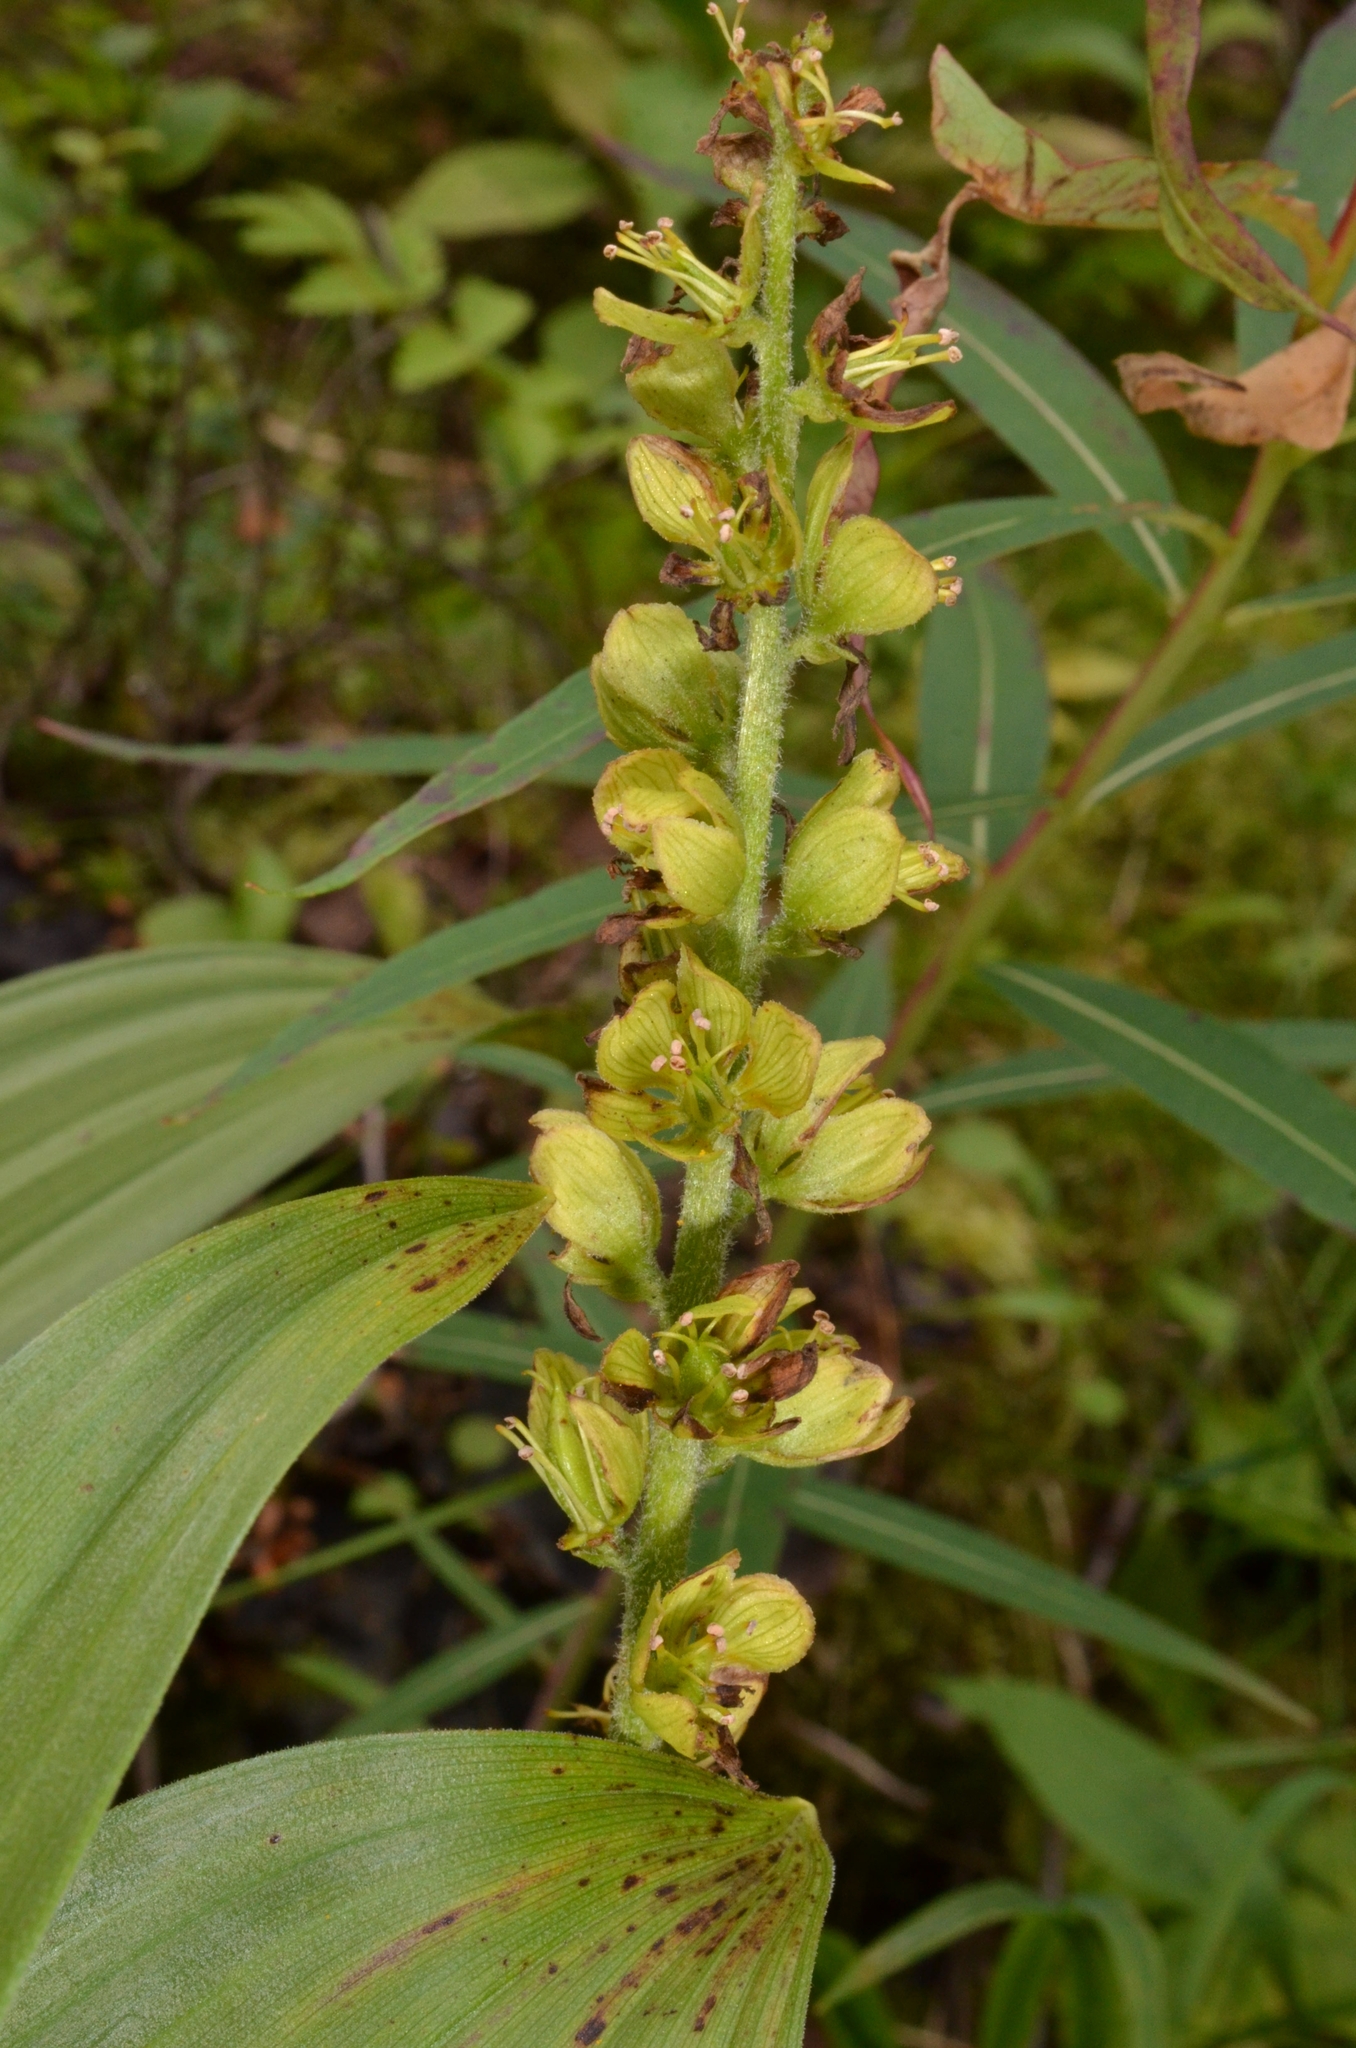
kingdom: Plantae
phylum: Tracheophyta
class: Liliopsida
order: Liliales
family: Melanthiaceae
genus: Veratrum
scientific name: Veratrum lobelianum
